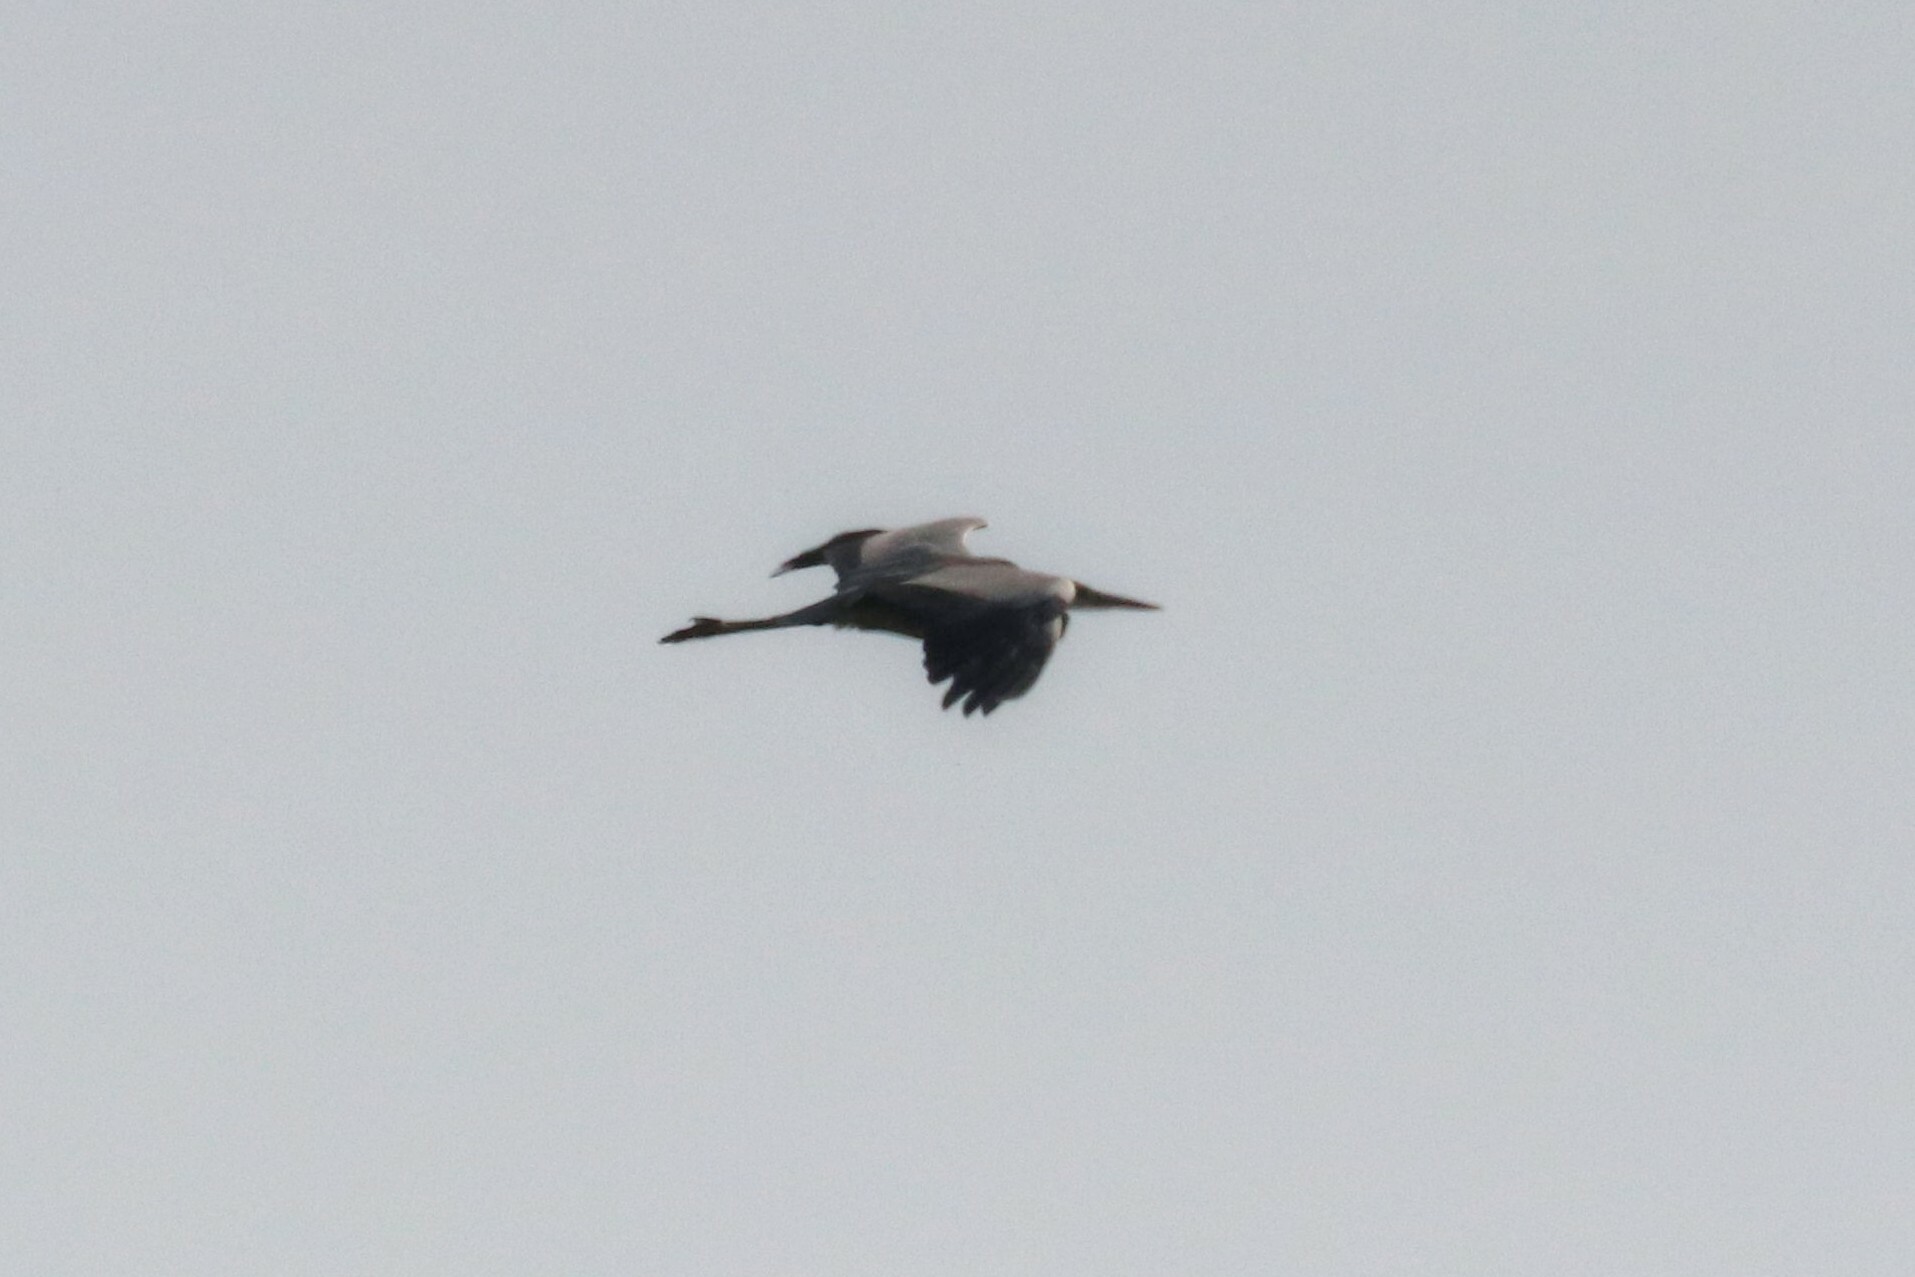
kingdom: Animalia
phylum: Chordata
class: Aves
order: Pelecaniformes
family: Ardeidae
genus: Ardea
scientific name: Ardea cinerea
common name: Grey heron
